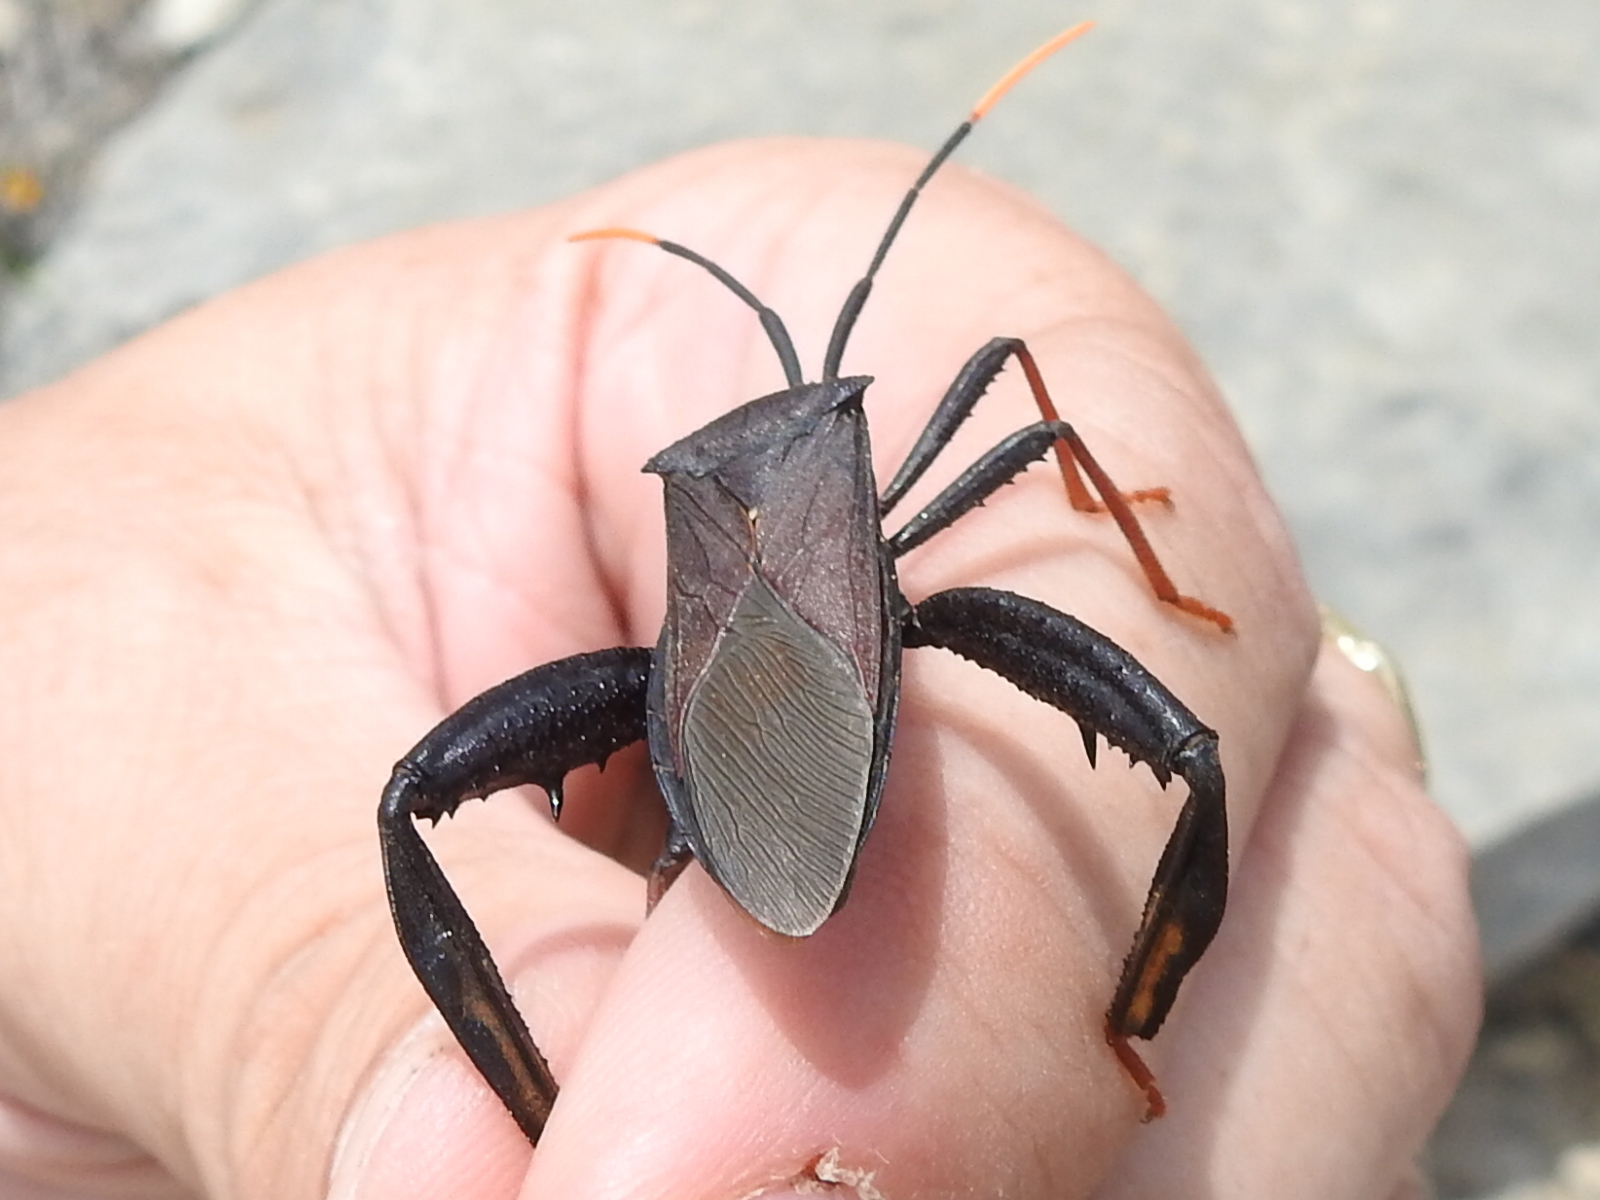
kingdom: Animalia
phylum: Arthropoda
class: Insecta
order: Hemiptera
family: Coreidae
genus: Acanthocephala
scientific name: Acanthocephala thomasi
